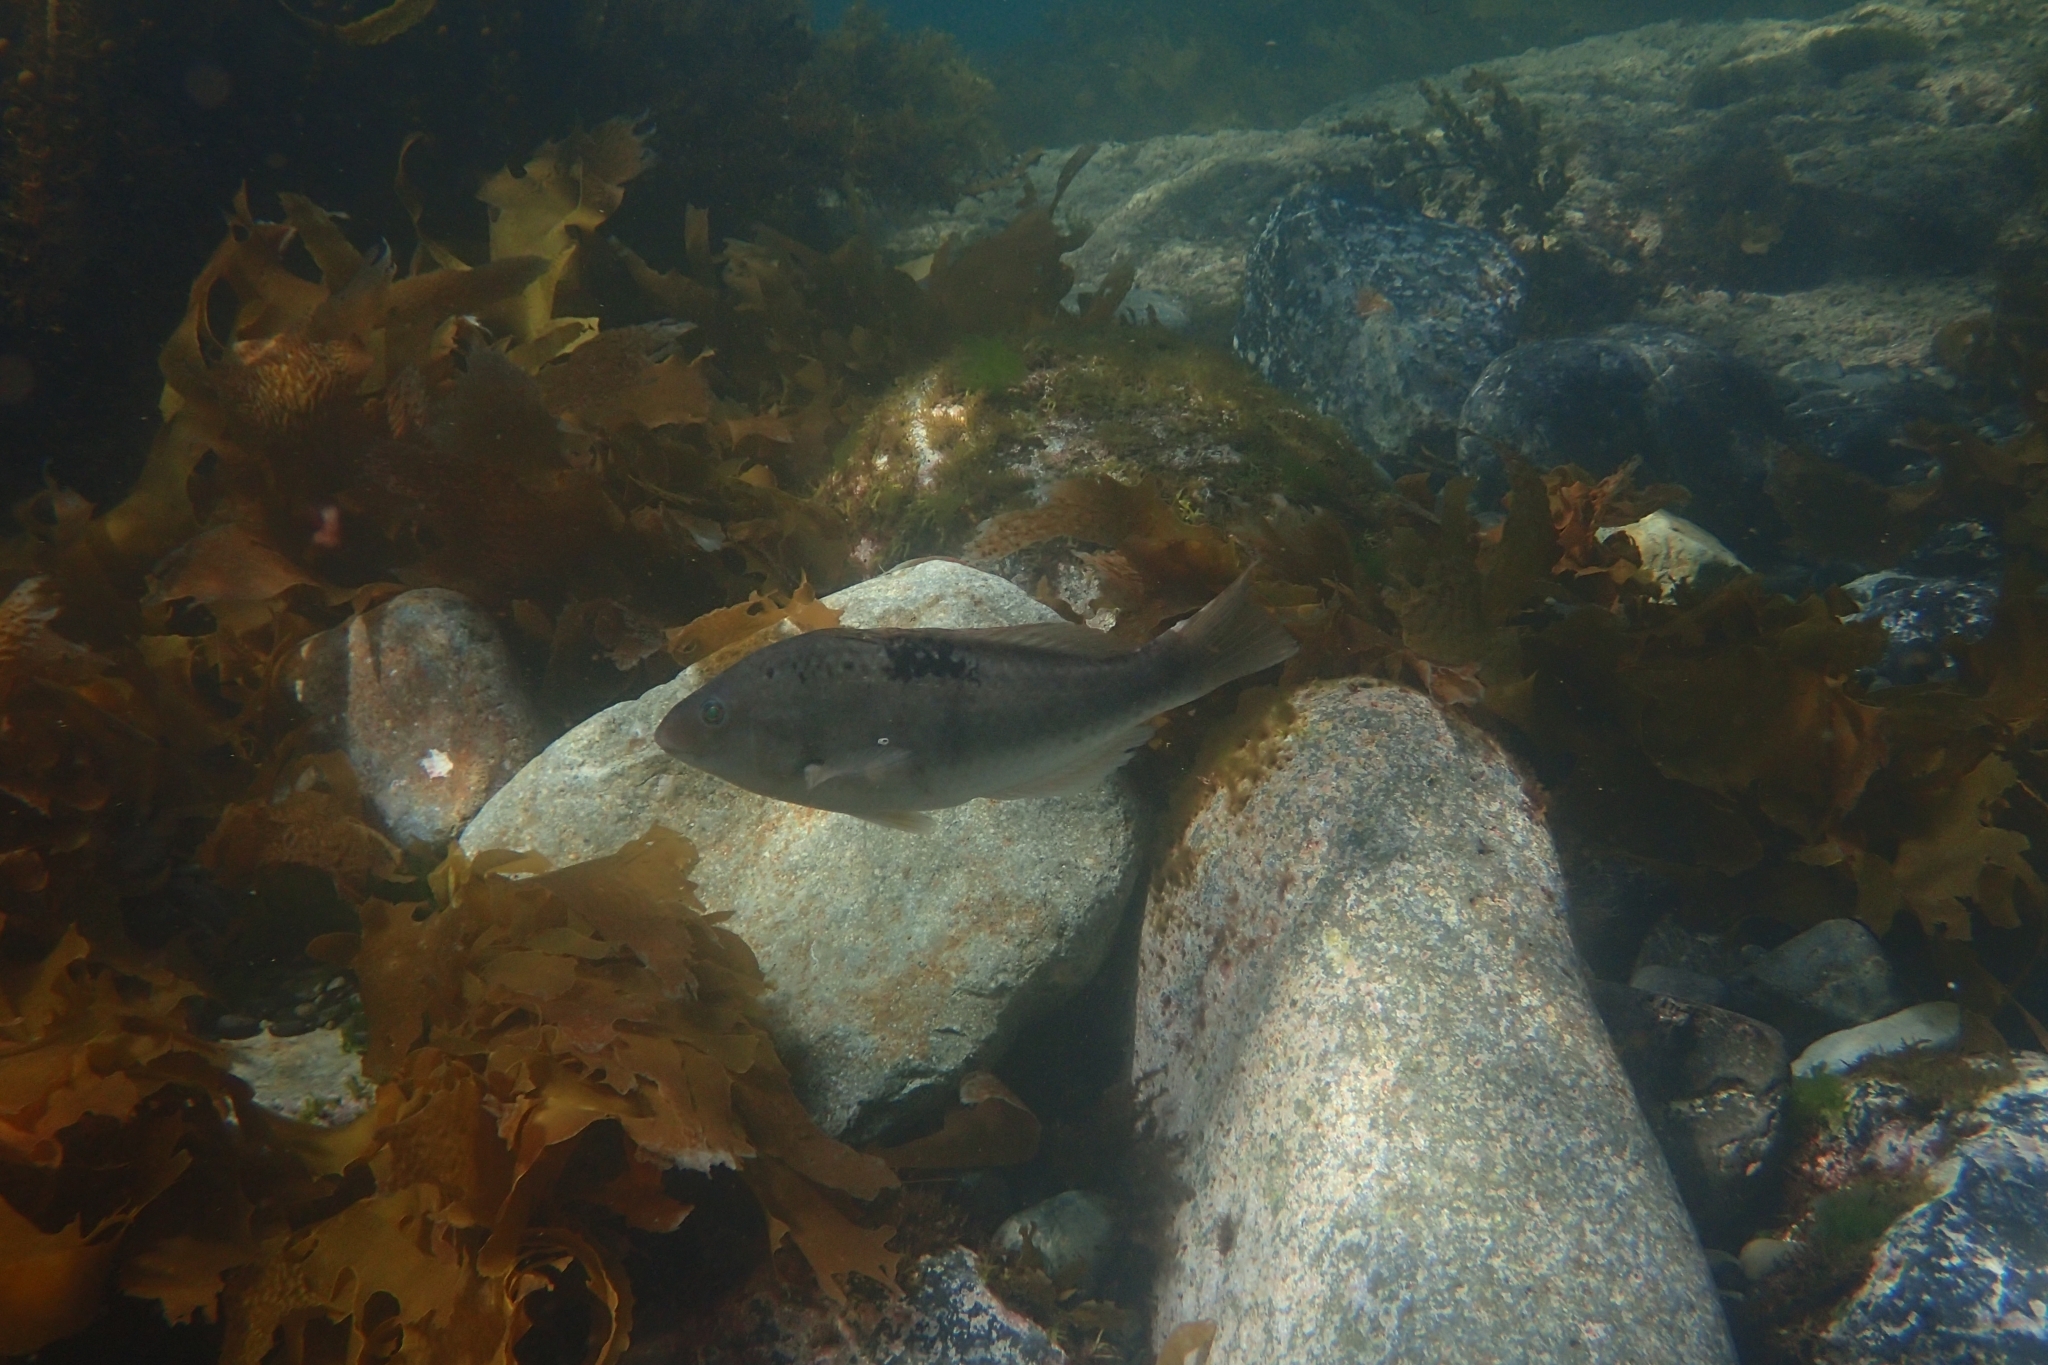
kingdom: Animalia
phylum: Chordata
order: Perciformes
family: Labridae
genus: Notolabrus
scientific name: Notolabrus celidotus
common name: Spotty
